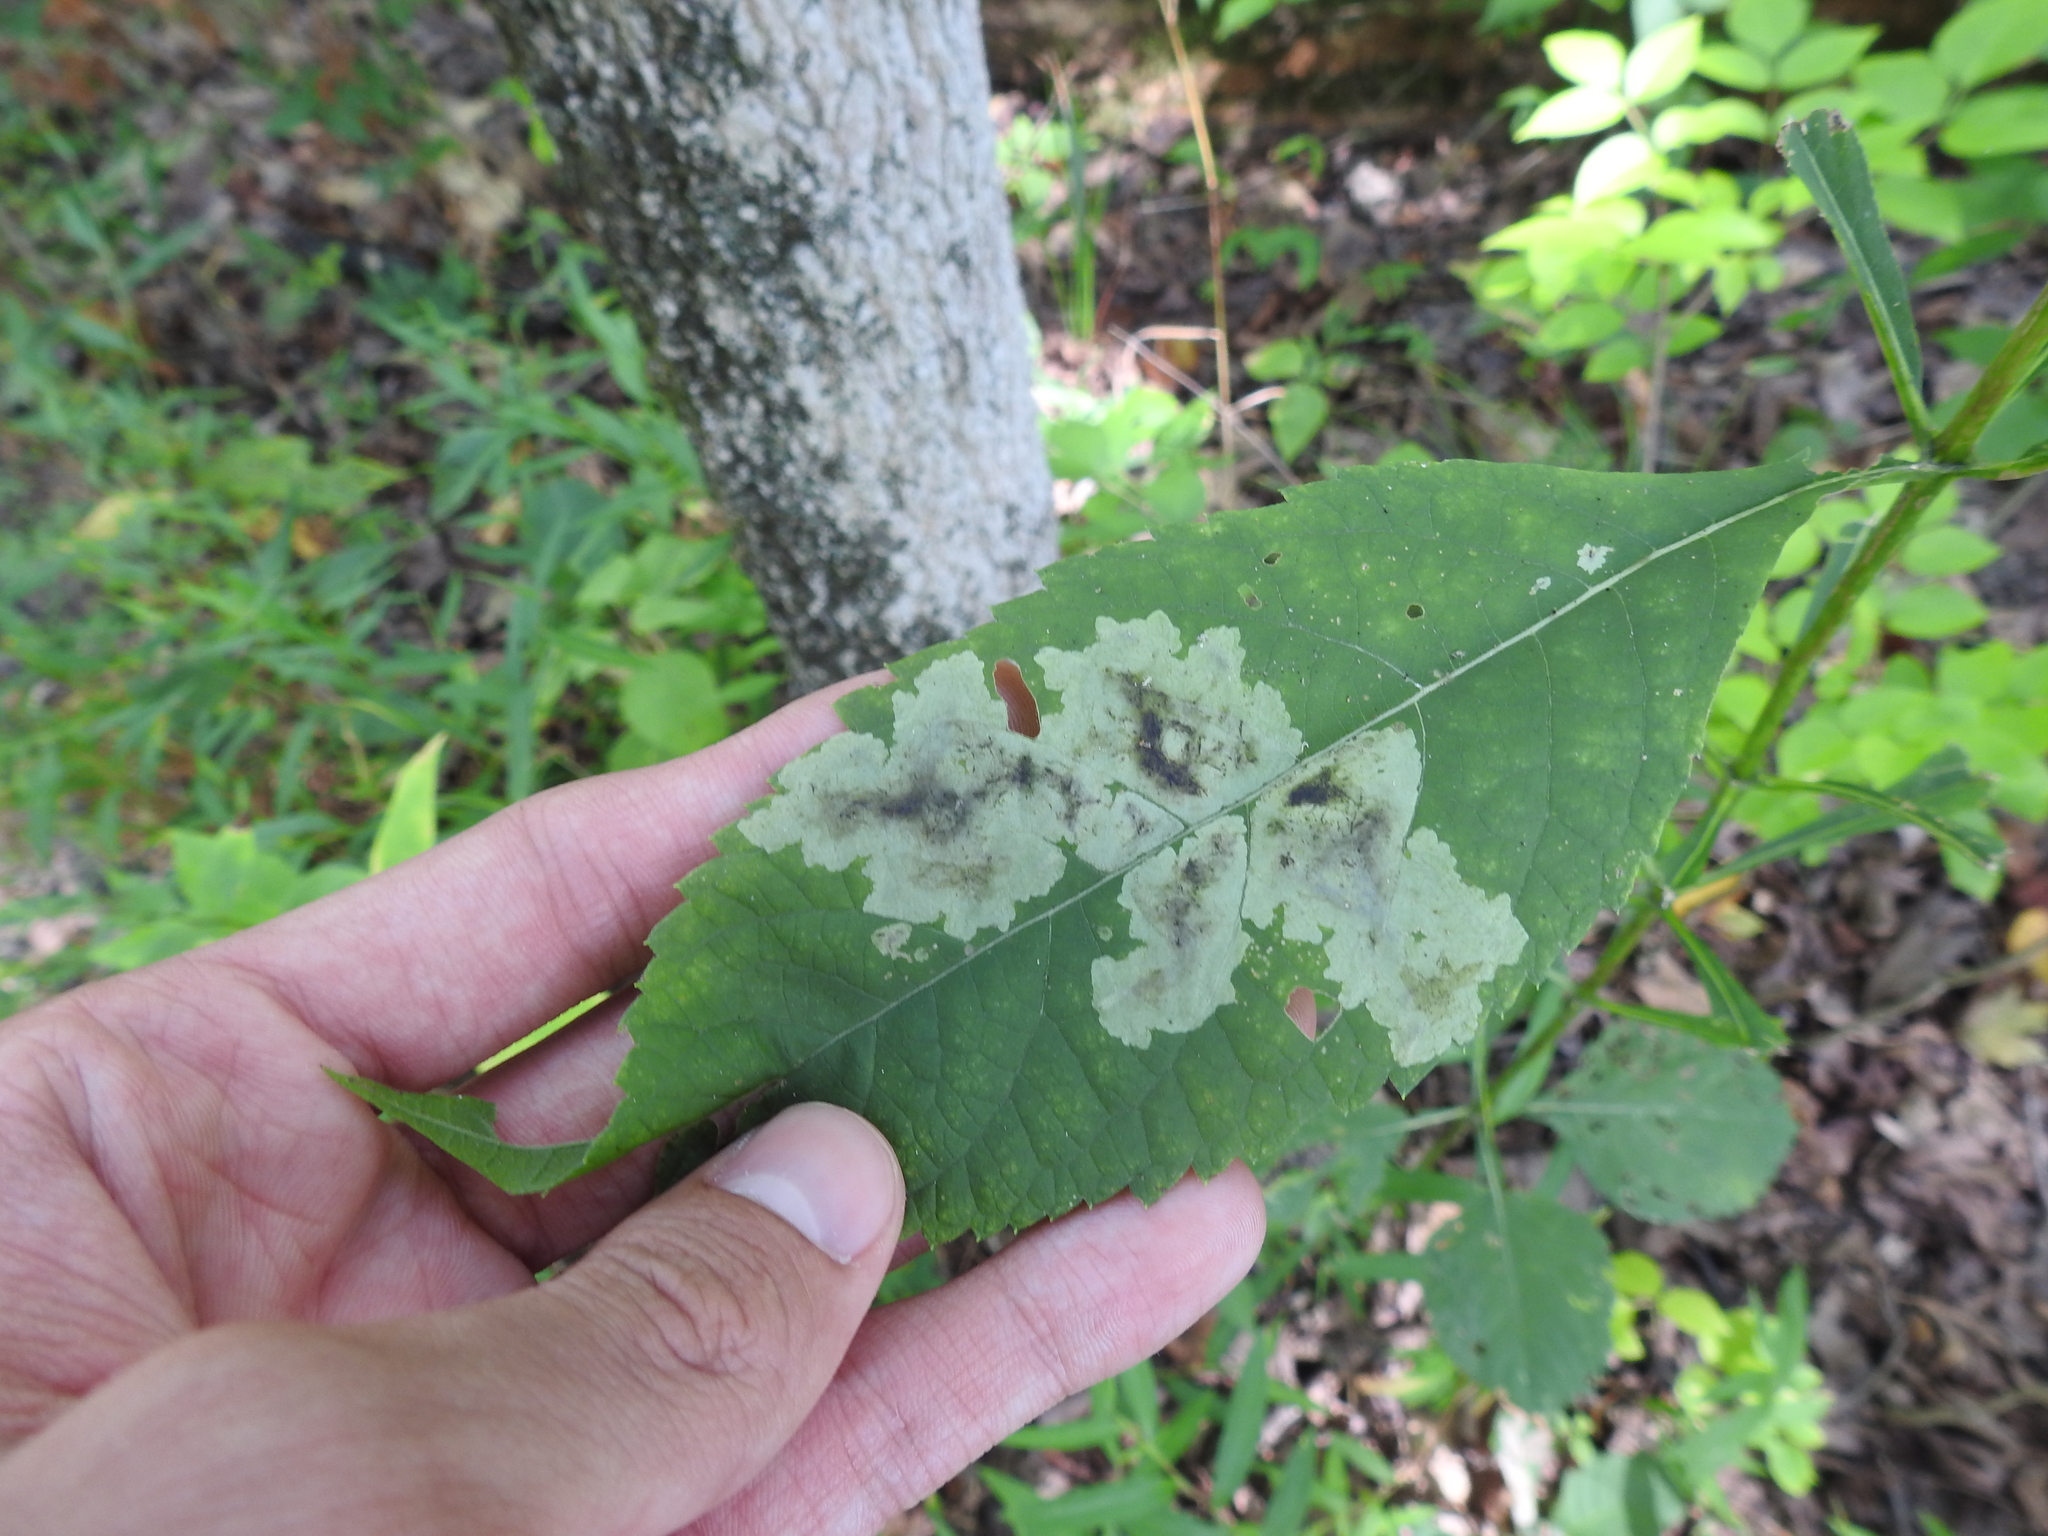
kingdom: Animalia
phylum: Arthropoda
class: Insecta
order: Diptera
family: Agromyzidae
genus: Calycomyza
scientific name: Calycomyza flavinotum
